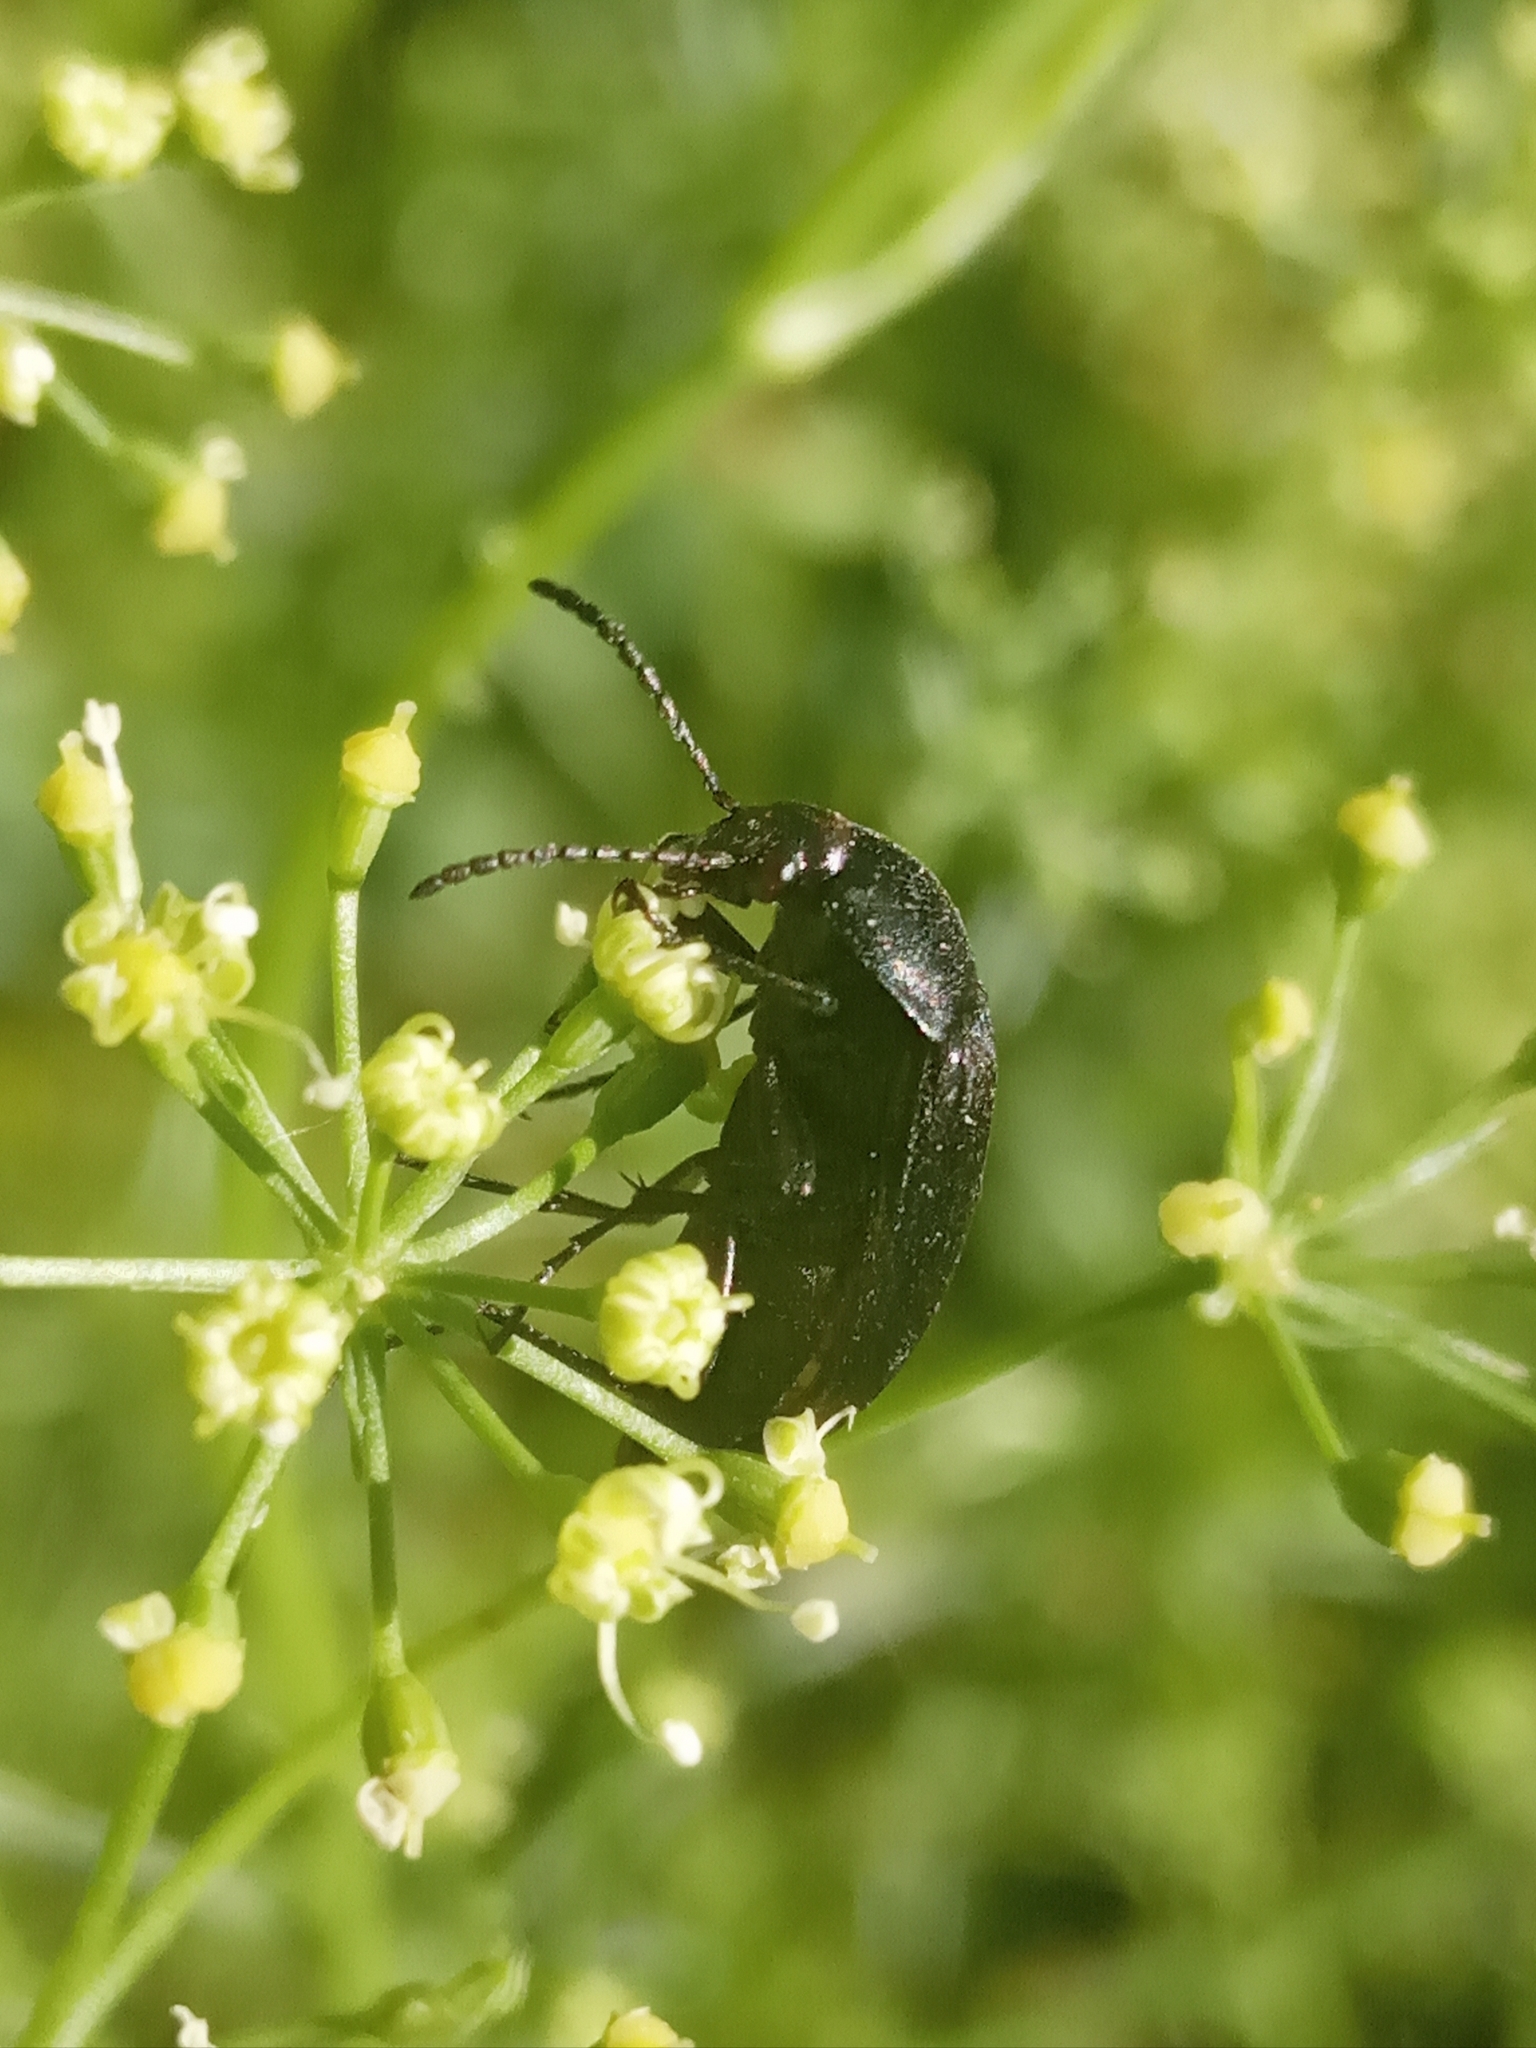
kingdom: Animalia
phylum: Arthropoda
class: Insecta
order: Coleoptera
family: Tenebrionidae
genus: Podonta
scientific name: Podonta
